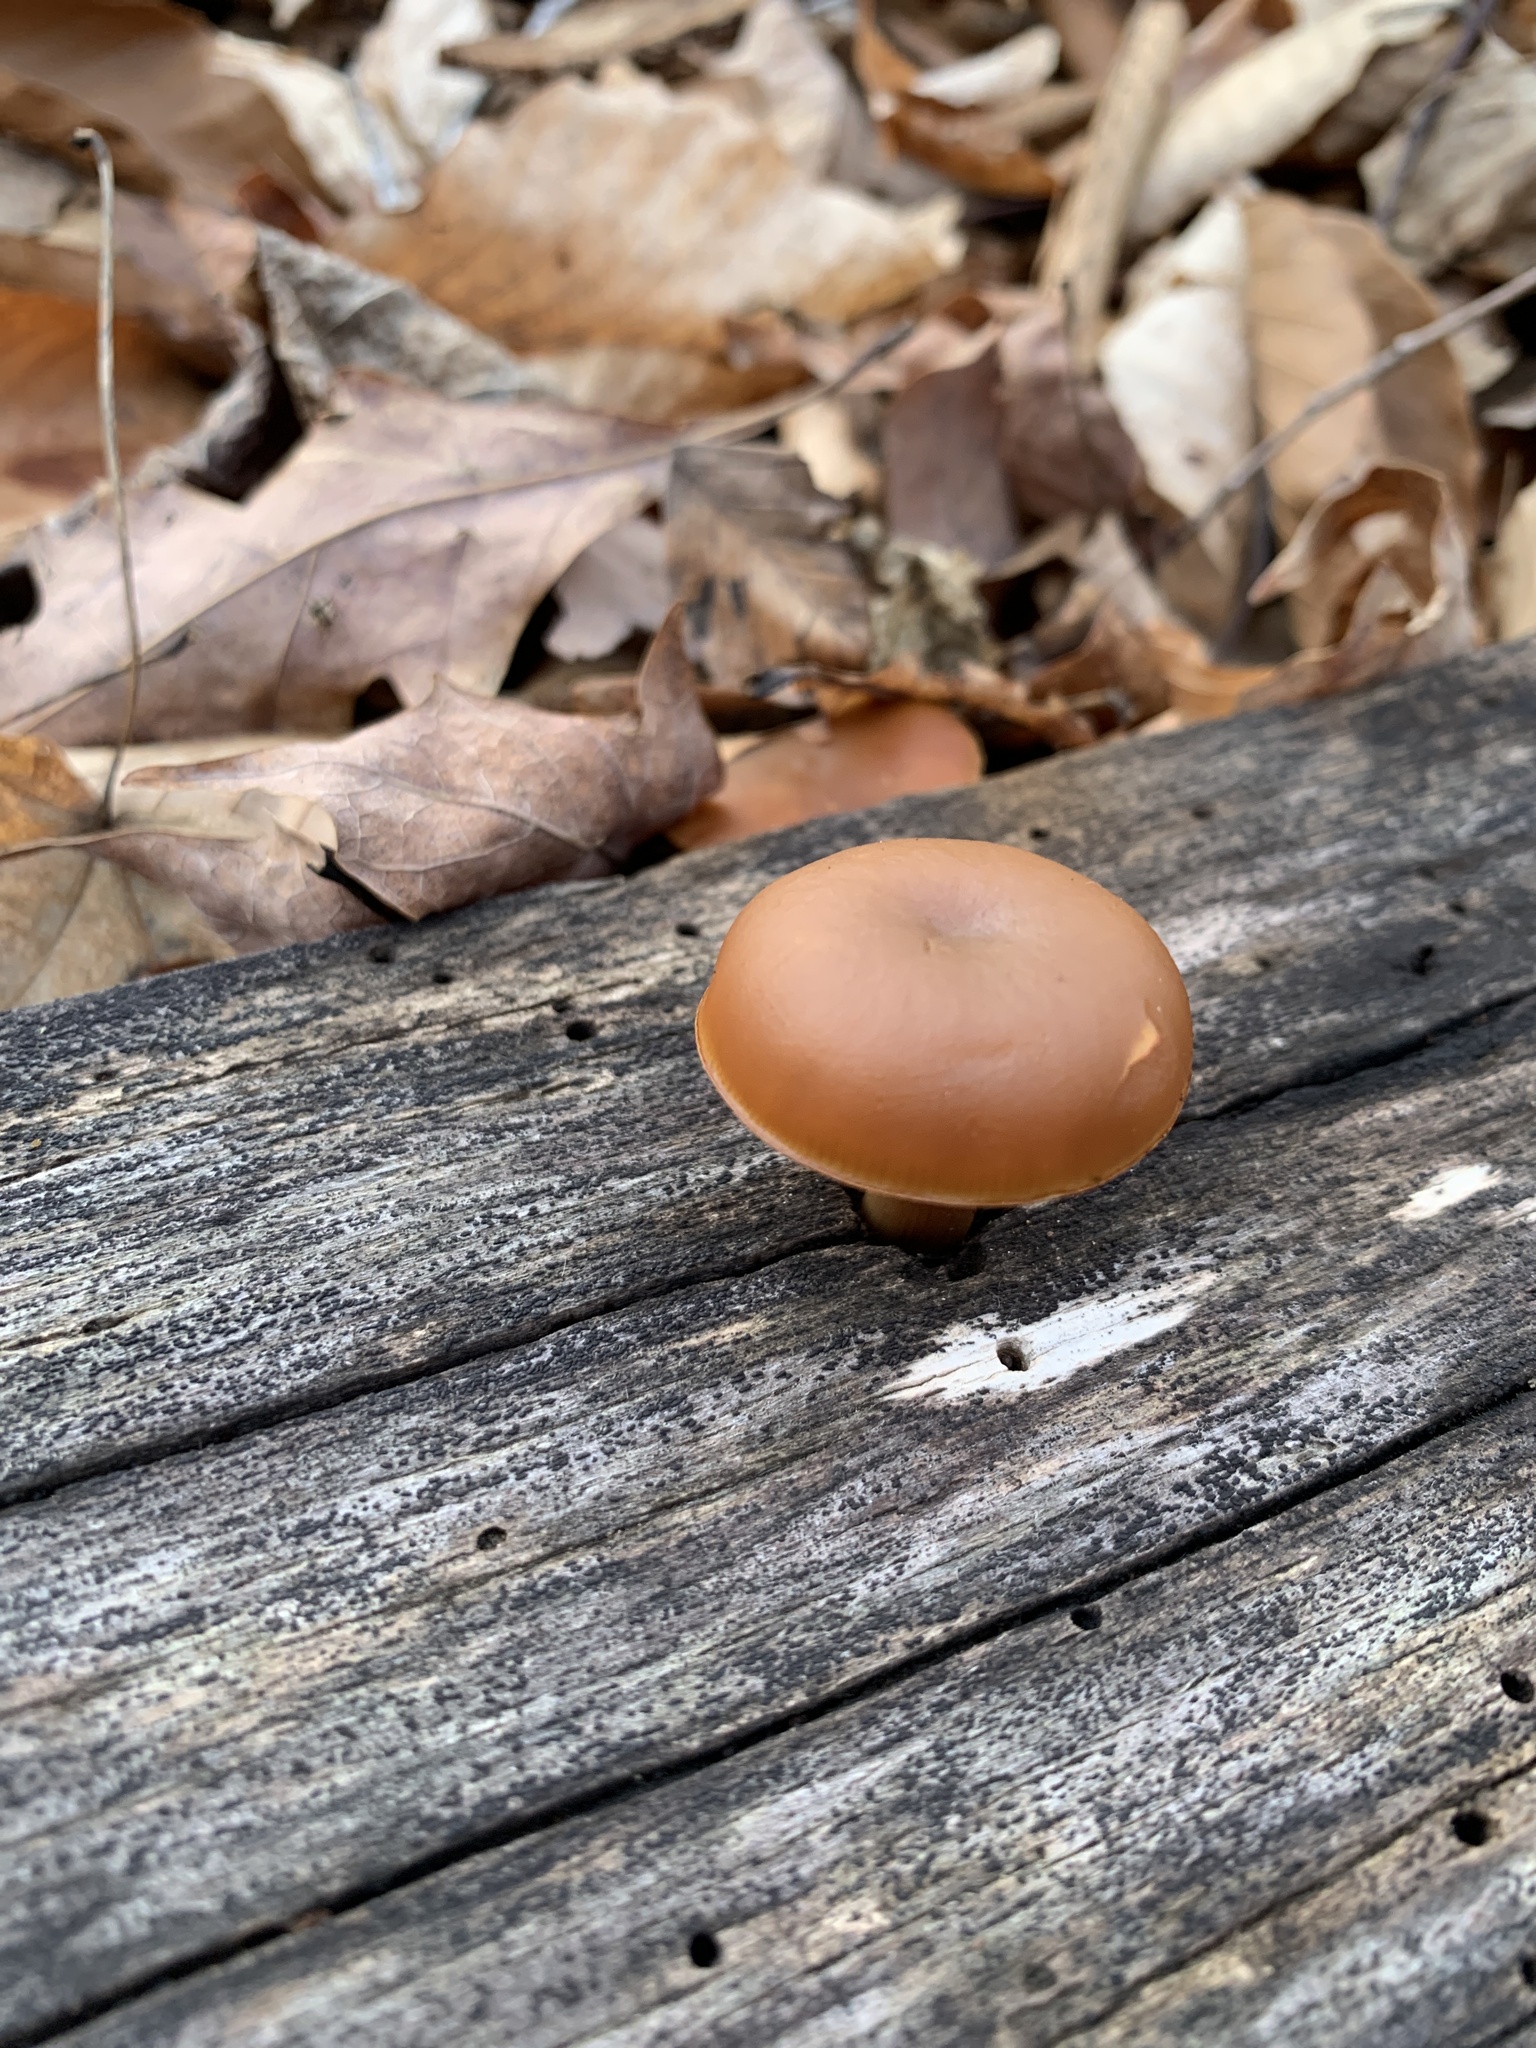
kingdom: Fungi
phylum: Basidiomycota
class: Agaricomycetes
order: Agaricales
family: Hymenogastraceae
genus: Galerina
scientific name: Galerina marginata
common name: Funeral bell
